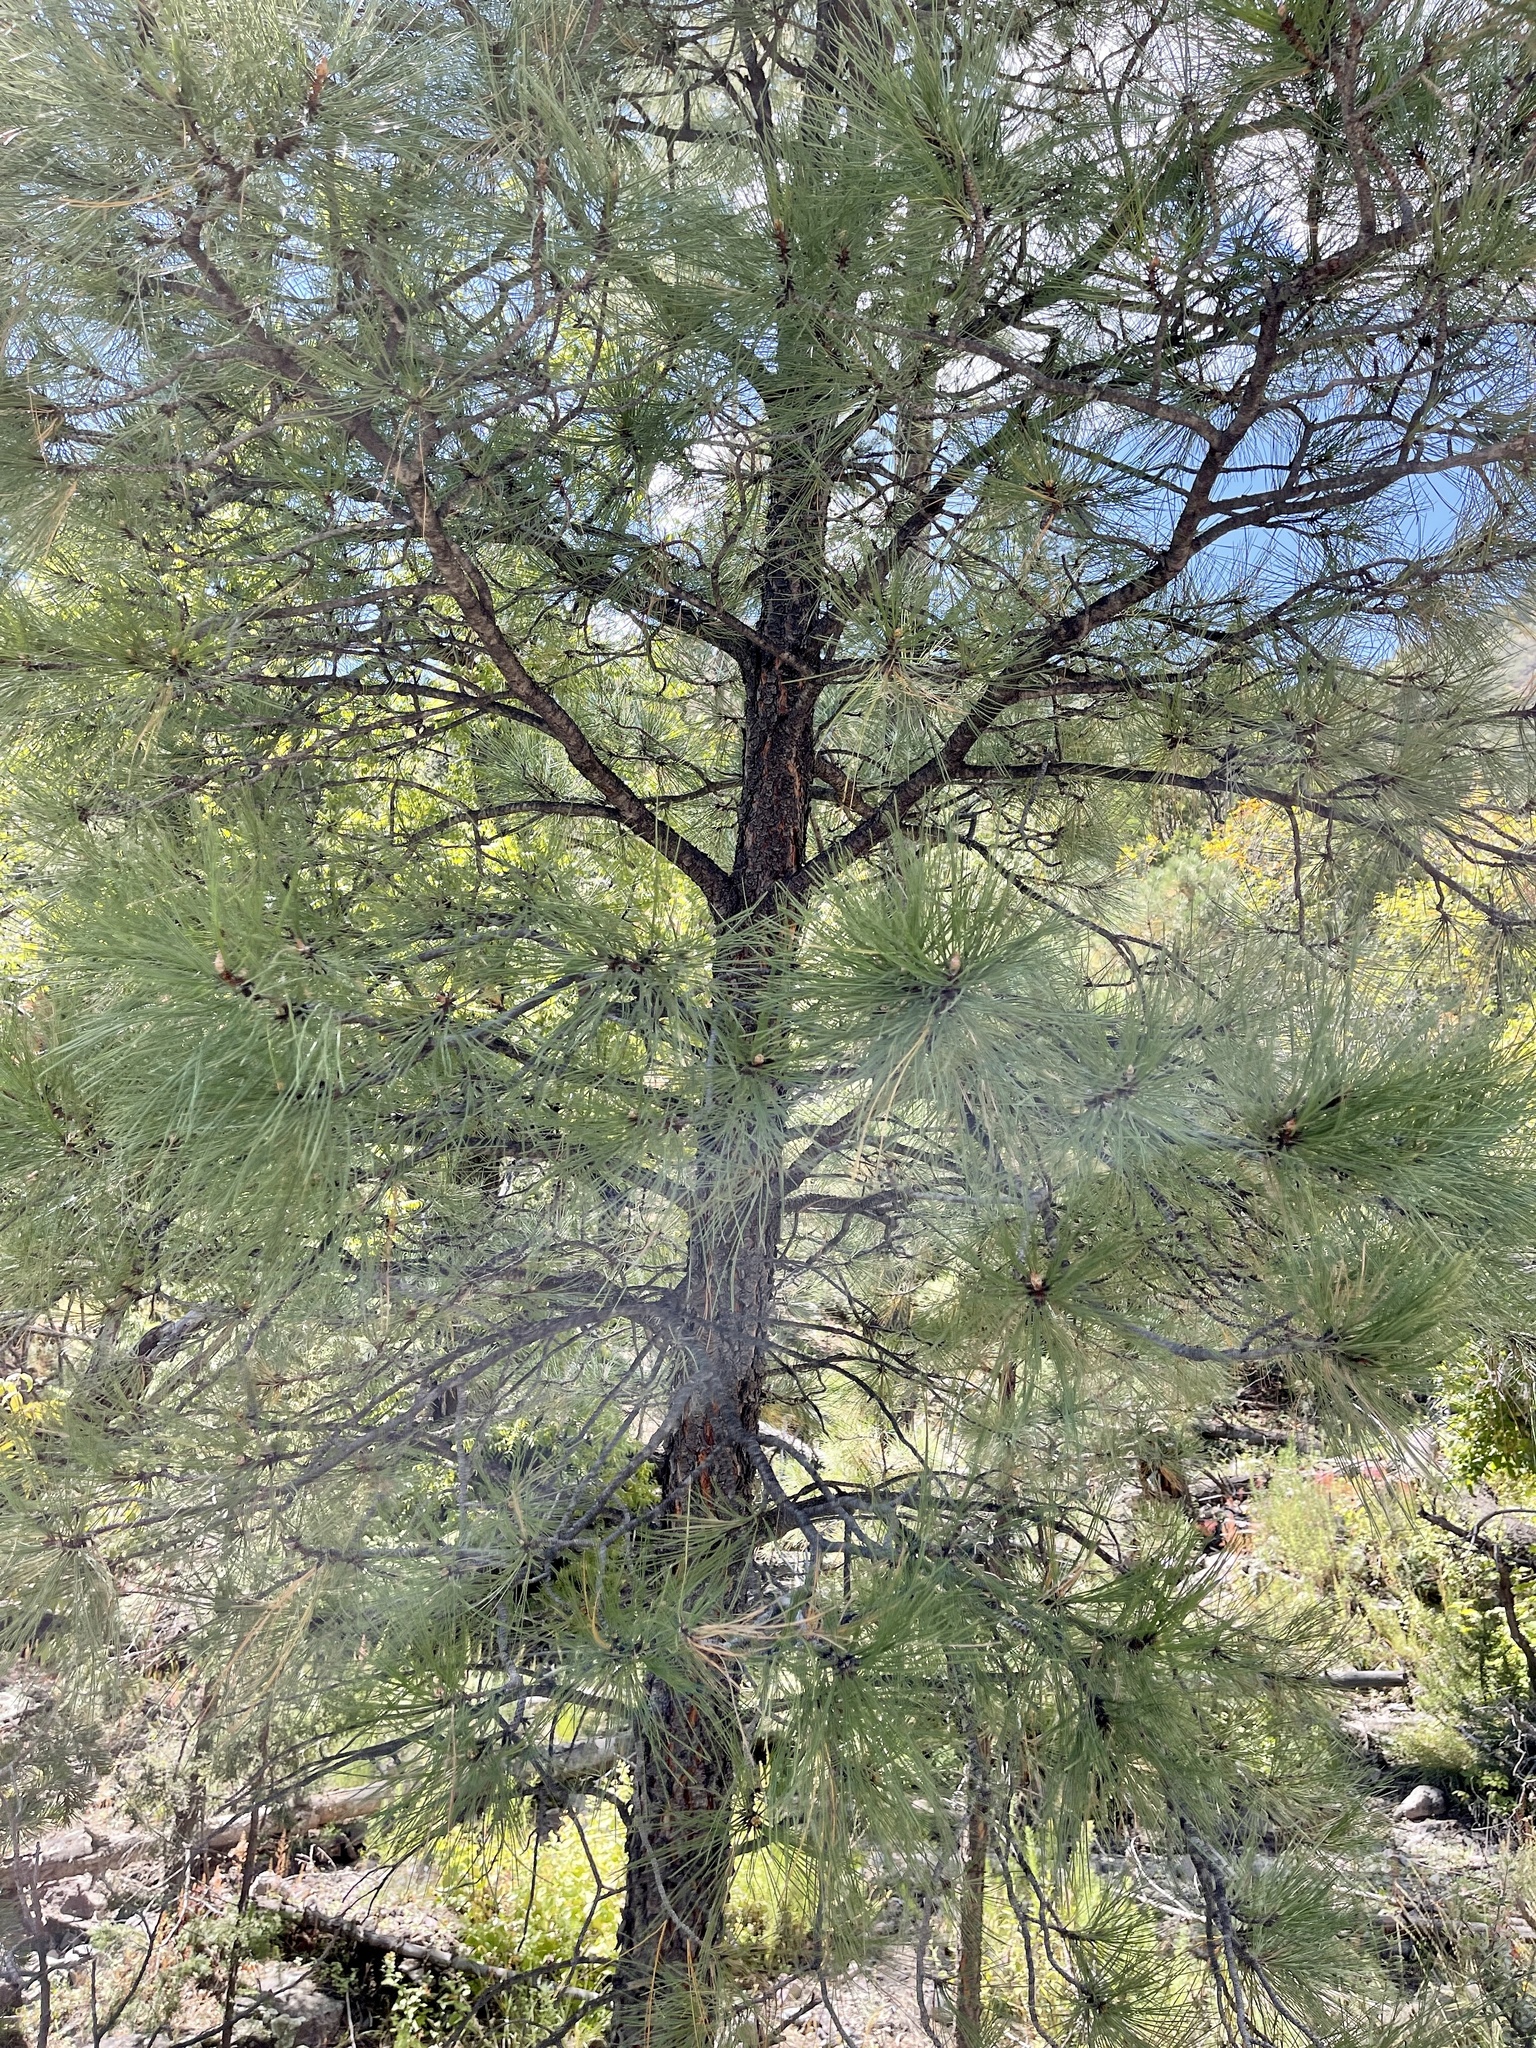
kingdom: Plantae
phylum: Tracheophyta
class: Pinopsida
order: Pinales
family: Pinaceae
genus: Pinus
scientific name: Pinus ponderosa
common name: Western yellow-pine
